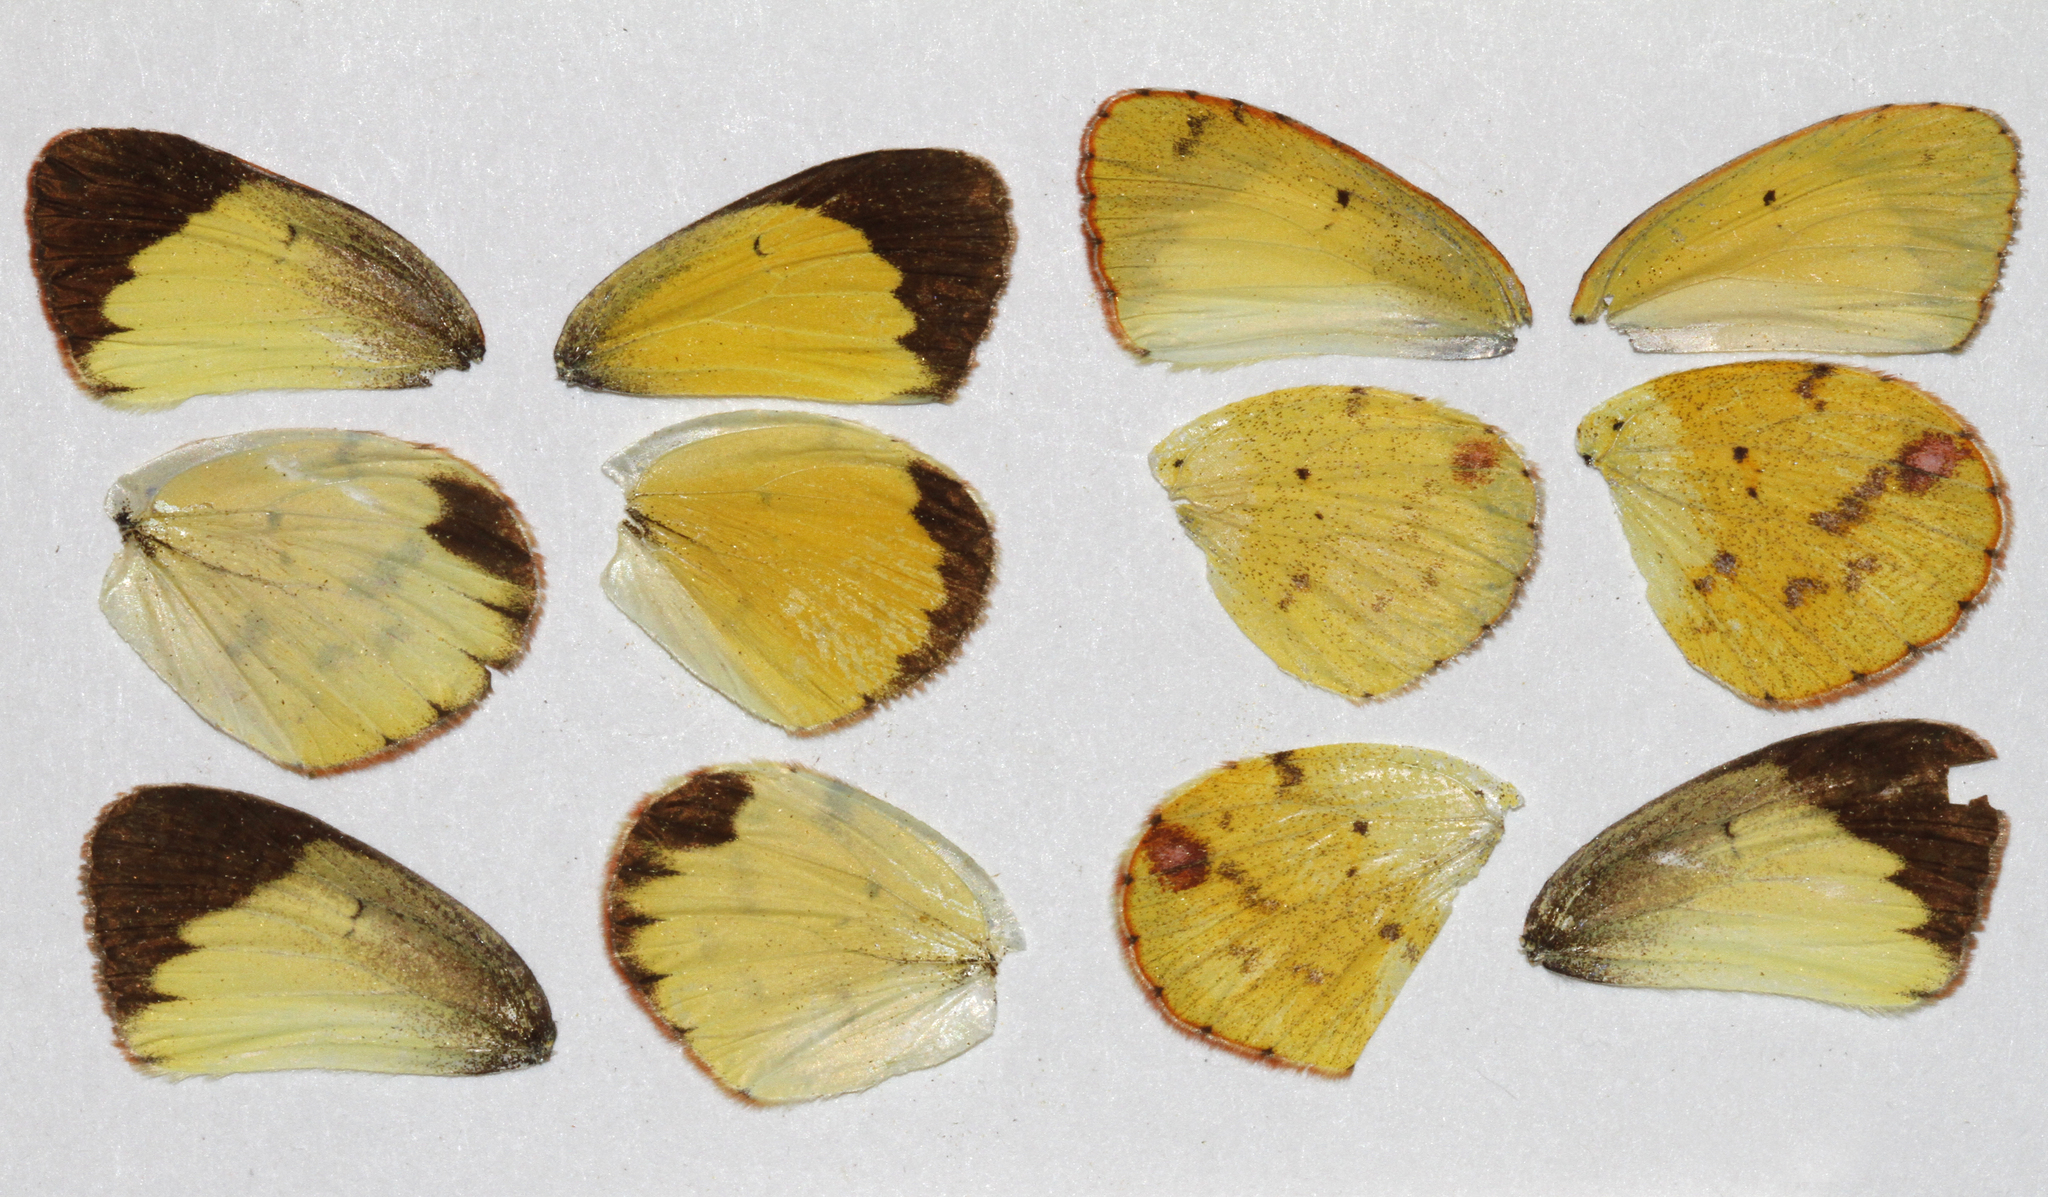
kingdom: Animalia
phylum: Arthropoda
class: Insecta
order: Lepidoptera
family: Pieridae
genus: Pyrisitia
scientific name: Pyrisitia lisa
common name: Little yellow
